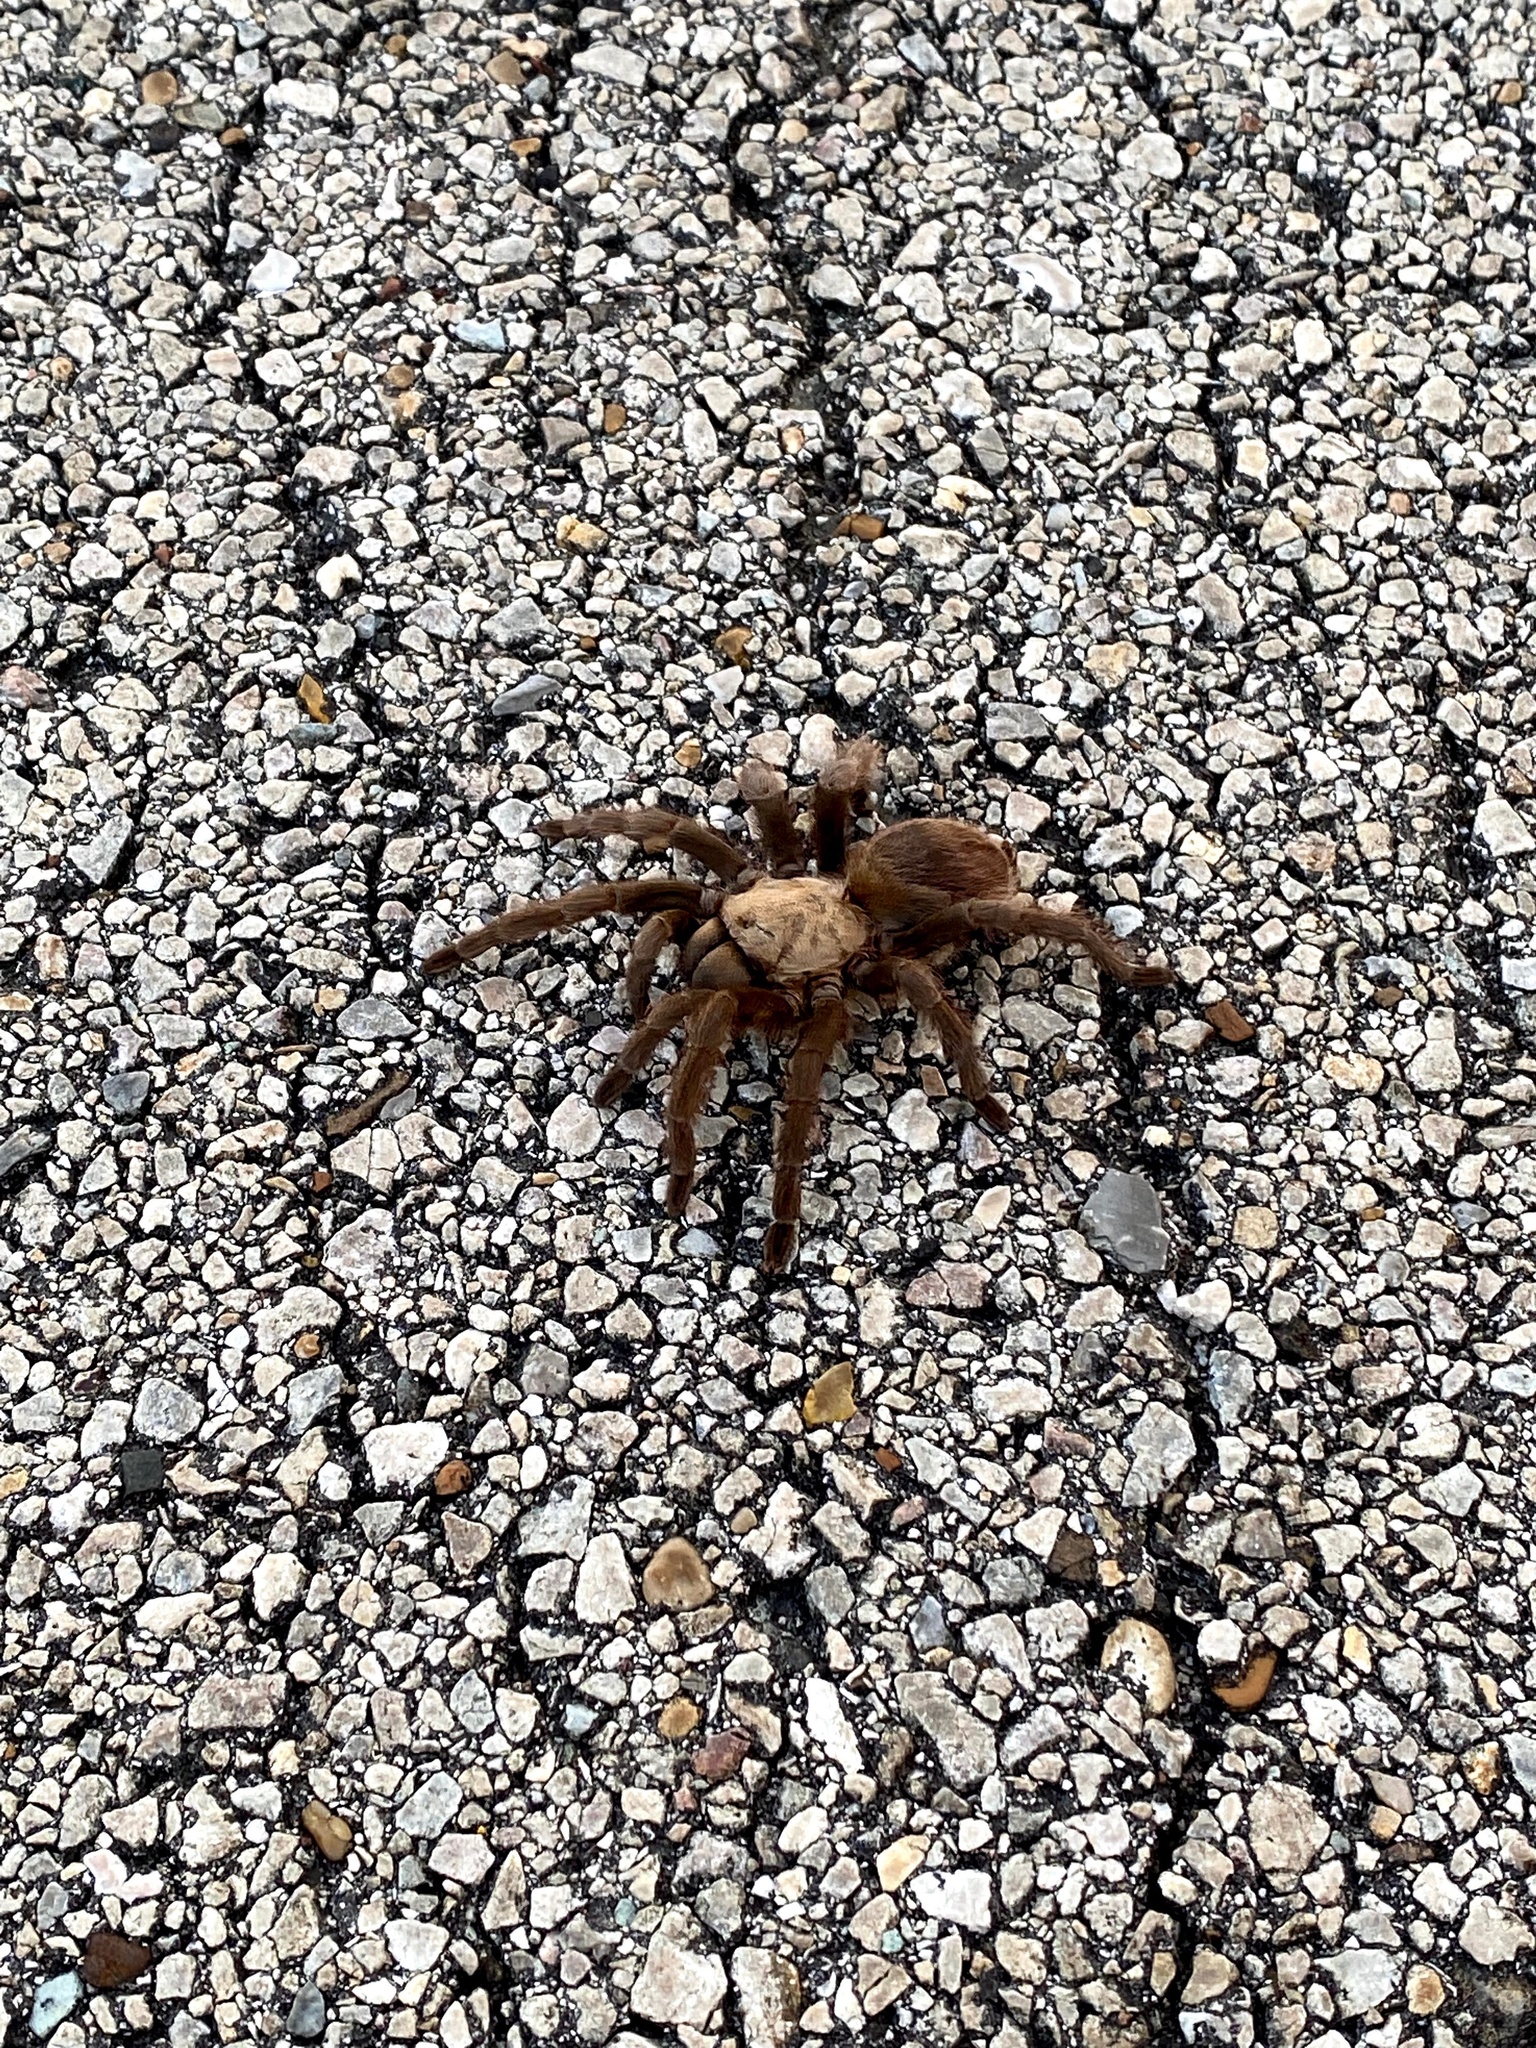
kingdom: Animalia
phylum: Arthropoda
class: Arachnida
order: Araneae
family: Theraphosidae
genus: Aphonopelma
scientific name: Aphonopelma hentzi
